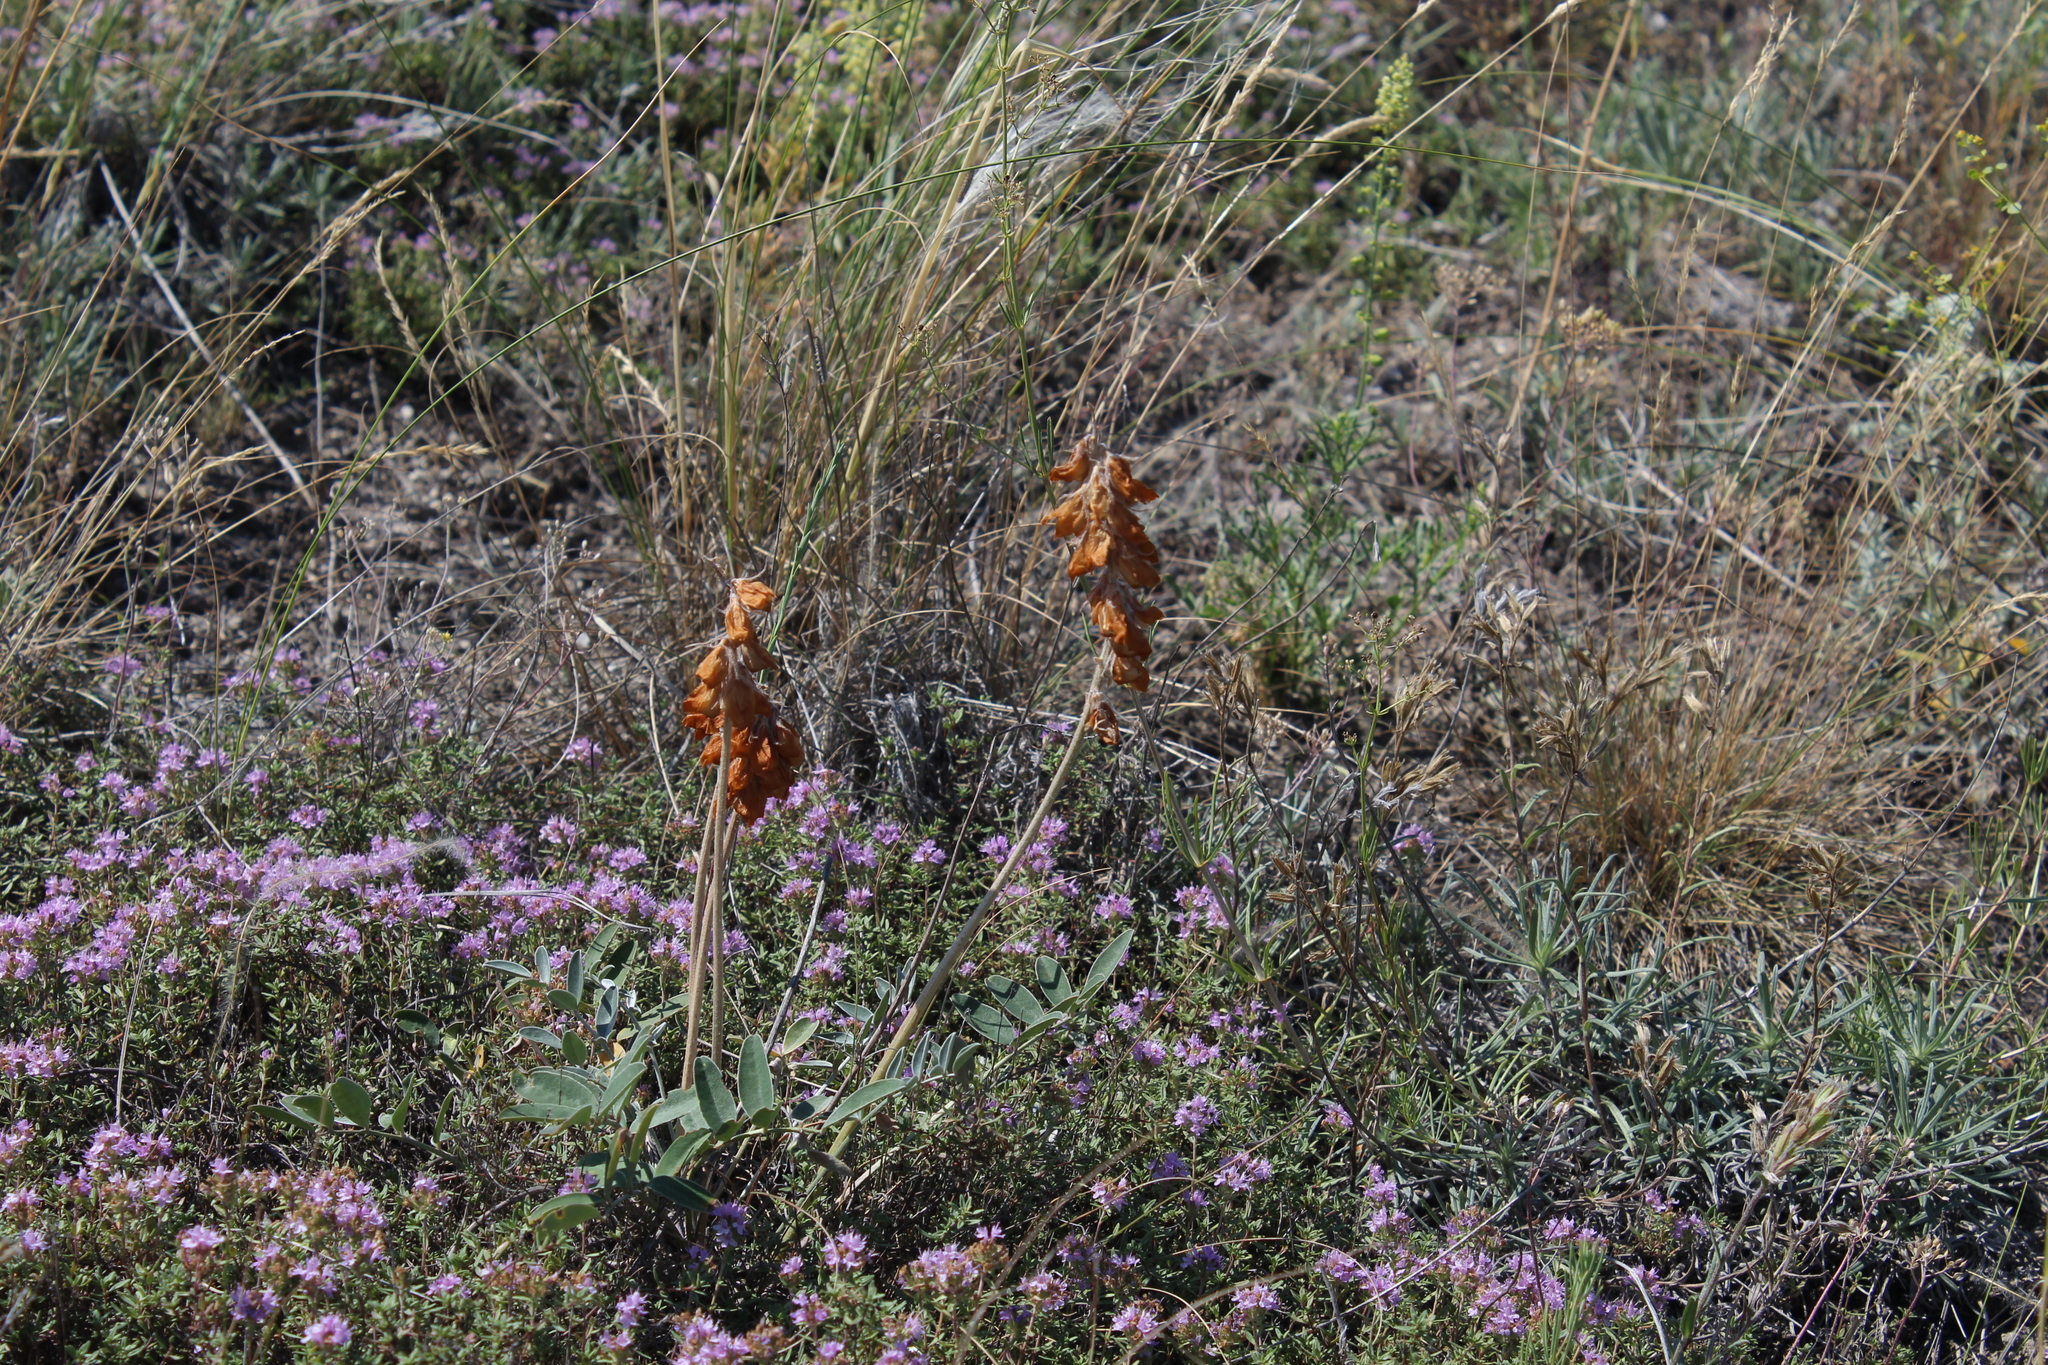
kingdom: Plantae
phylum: Tracheophyta
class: Magnoliopsida
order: Fabales
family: Fabaceae
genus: Hedysarum
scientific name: Hedysarum grandiflorum
